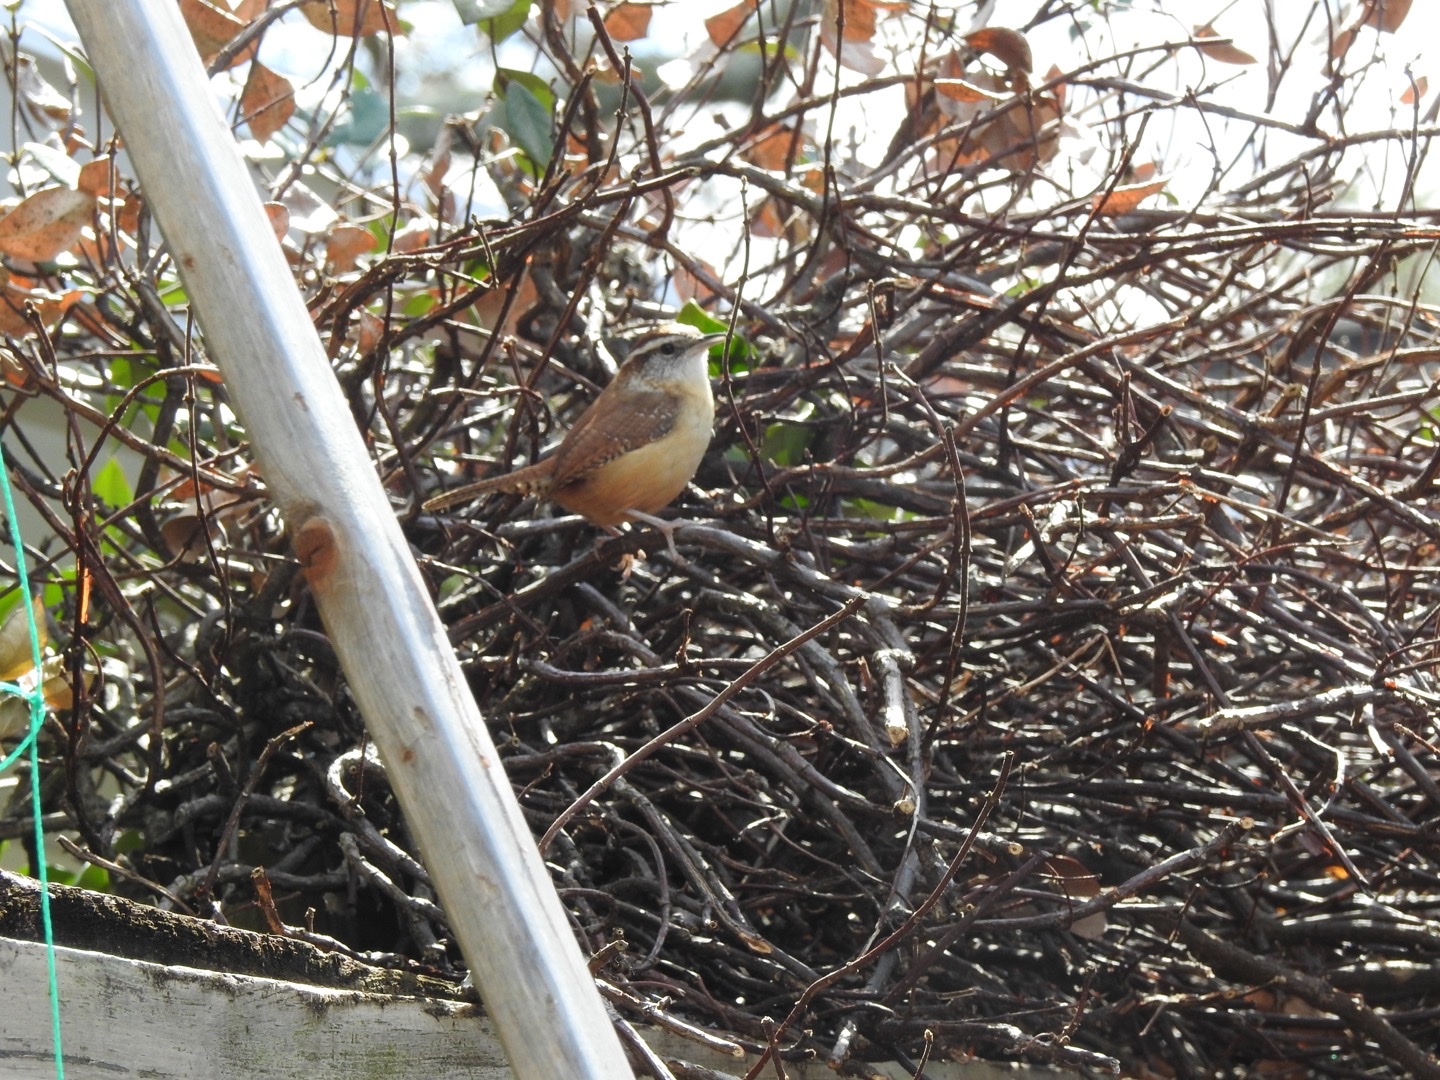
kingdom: Animalia
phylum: Chordata
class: Aves
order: Passeriformes
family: Troglodytidae
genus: Thryothorus
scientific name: Thryothorus ludovicianus
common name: Carolina wren
